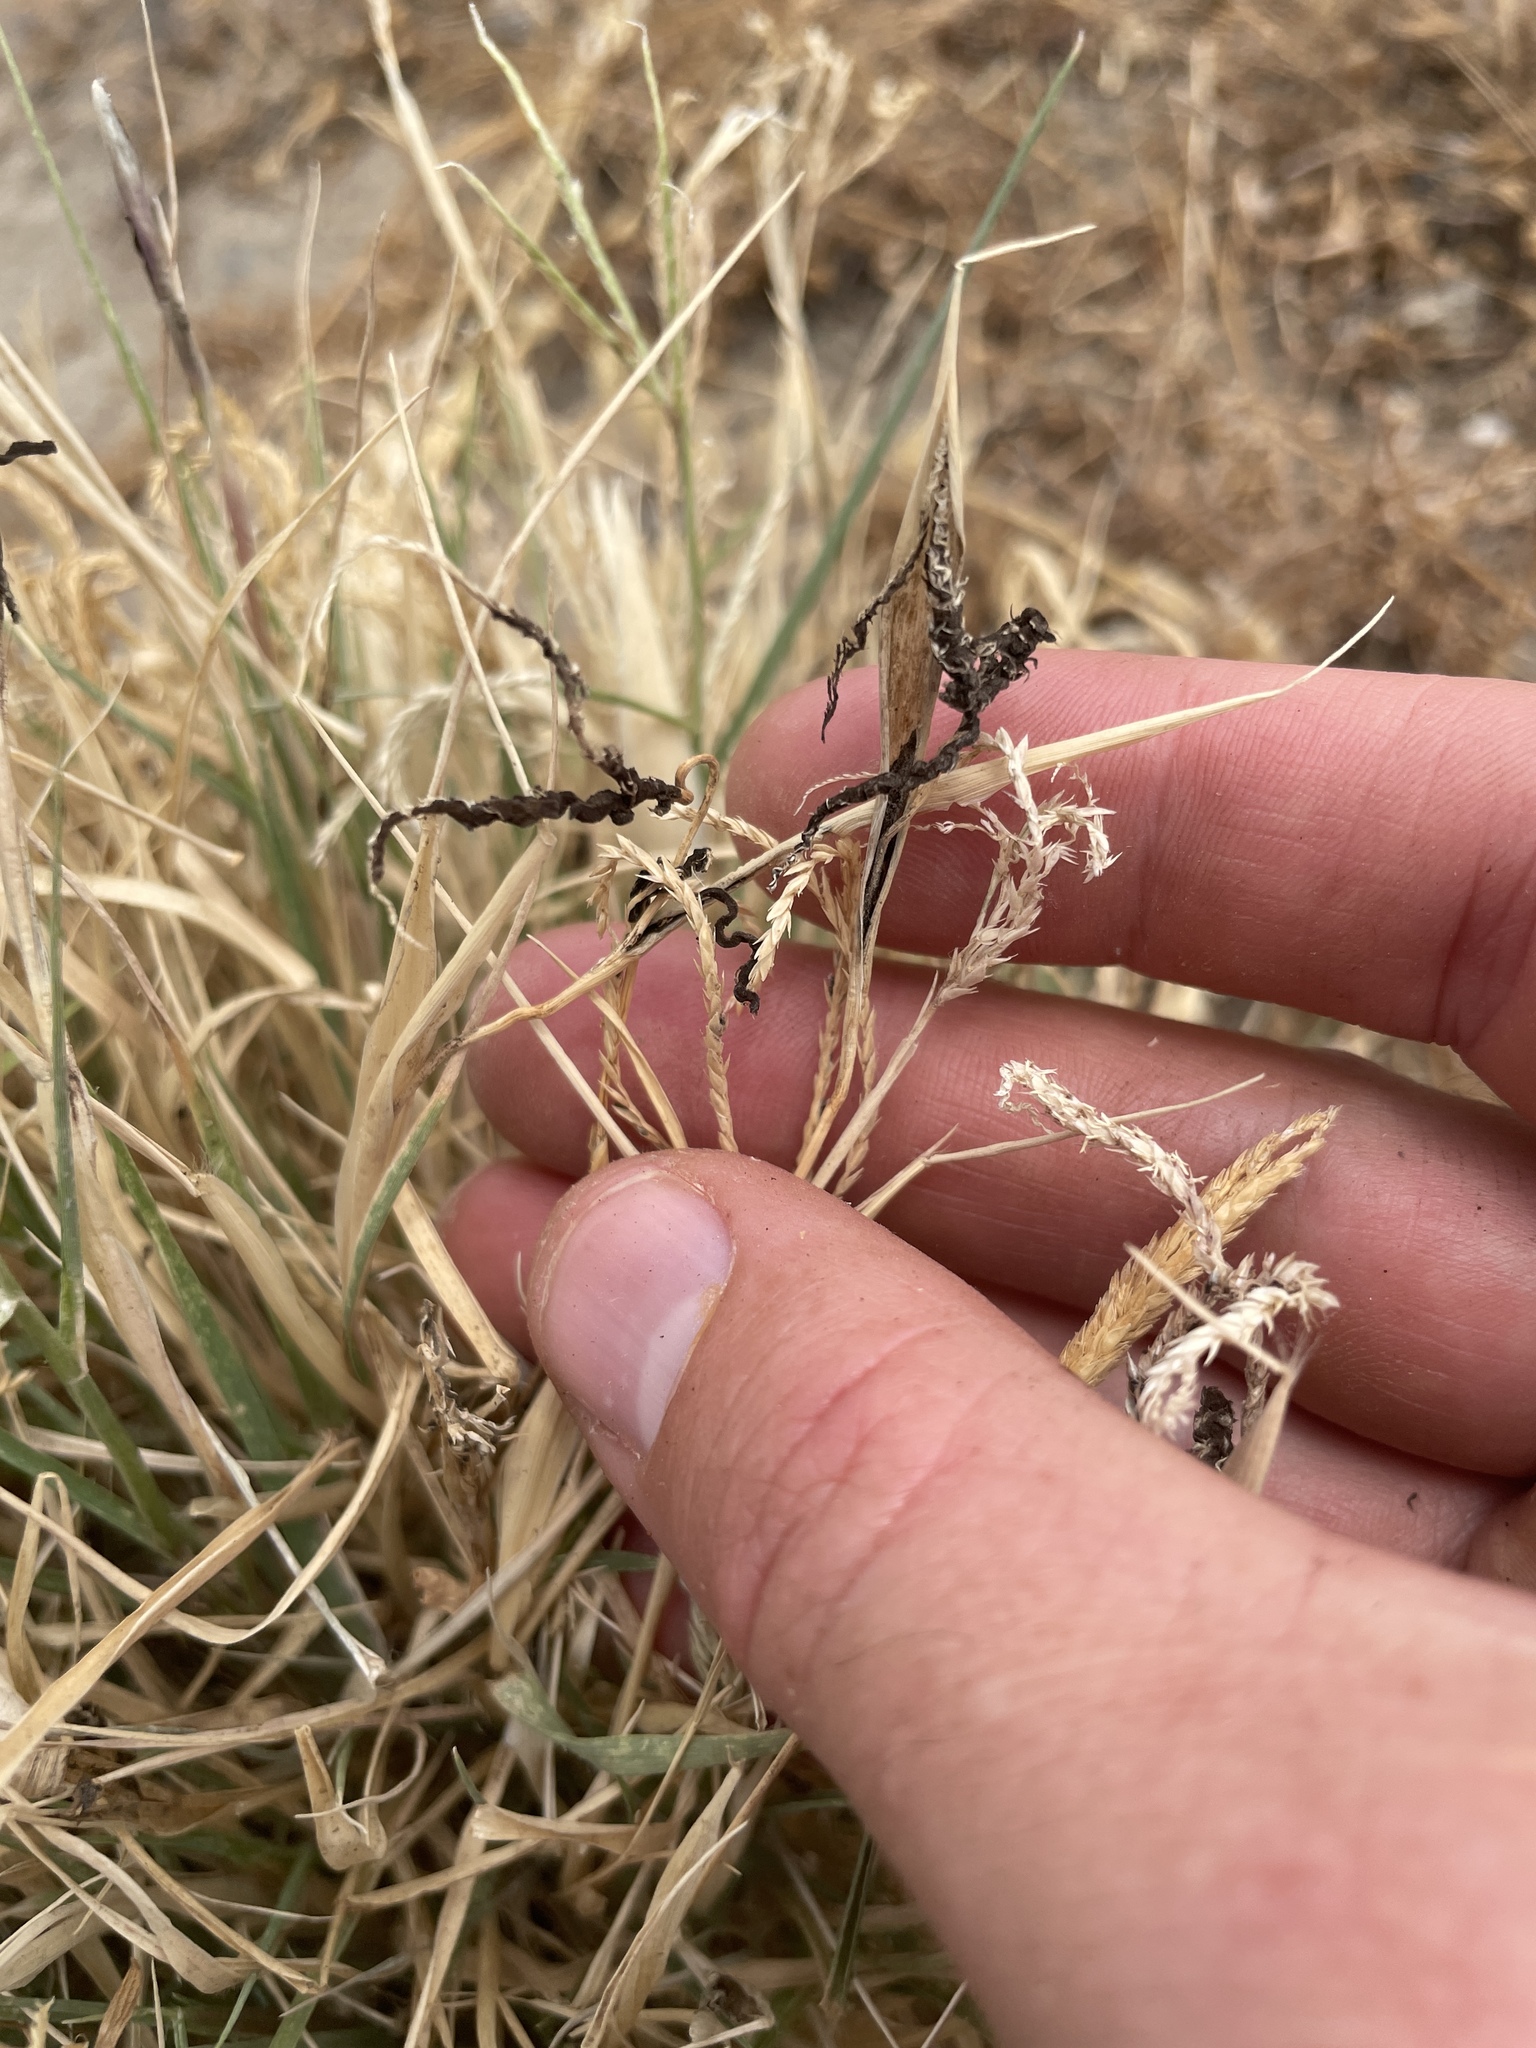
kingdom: Fungi
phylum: Basidiomycota
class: Ustilaginomycetes
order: Ustilaginales
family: Ustilaginaceae
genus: Ustilago
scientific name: Ustilago cynodontis
